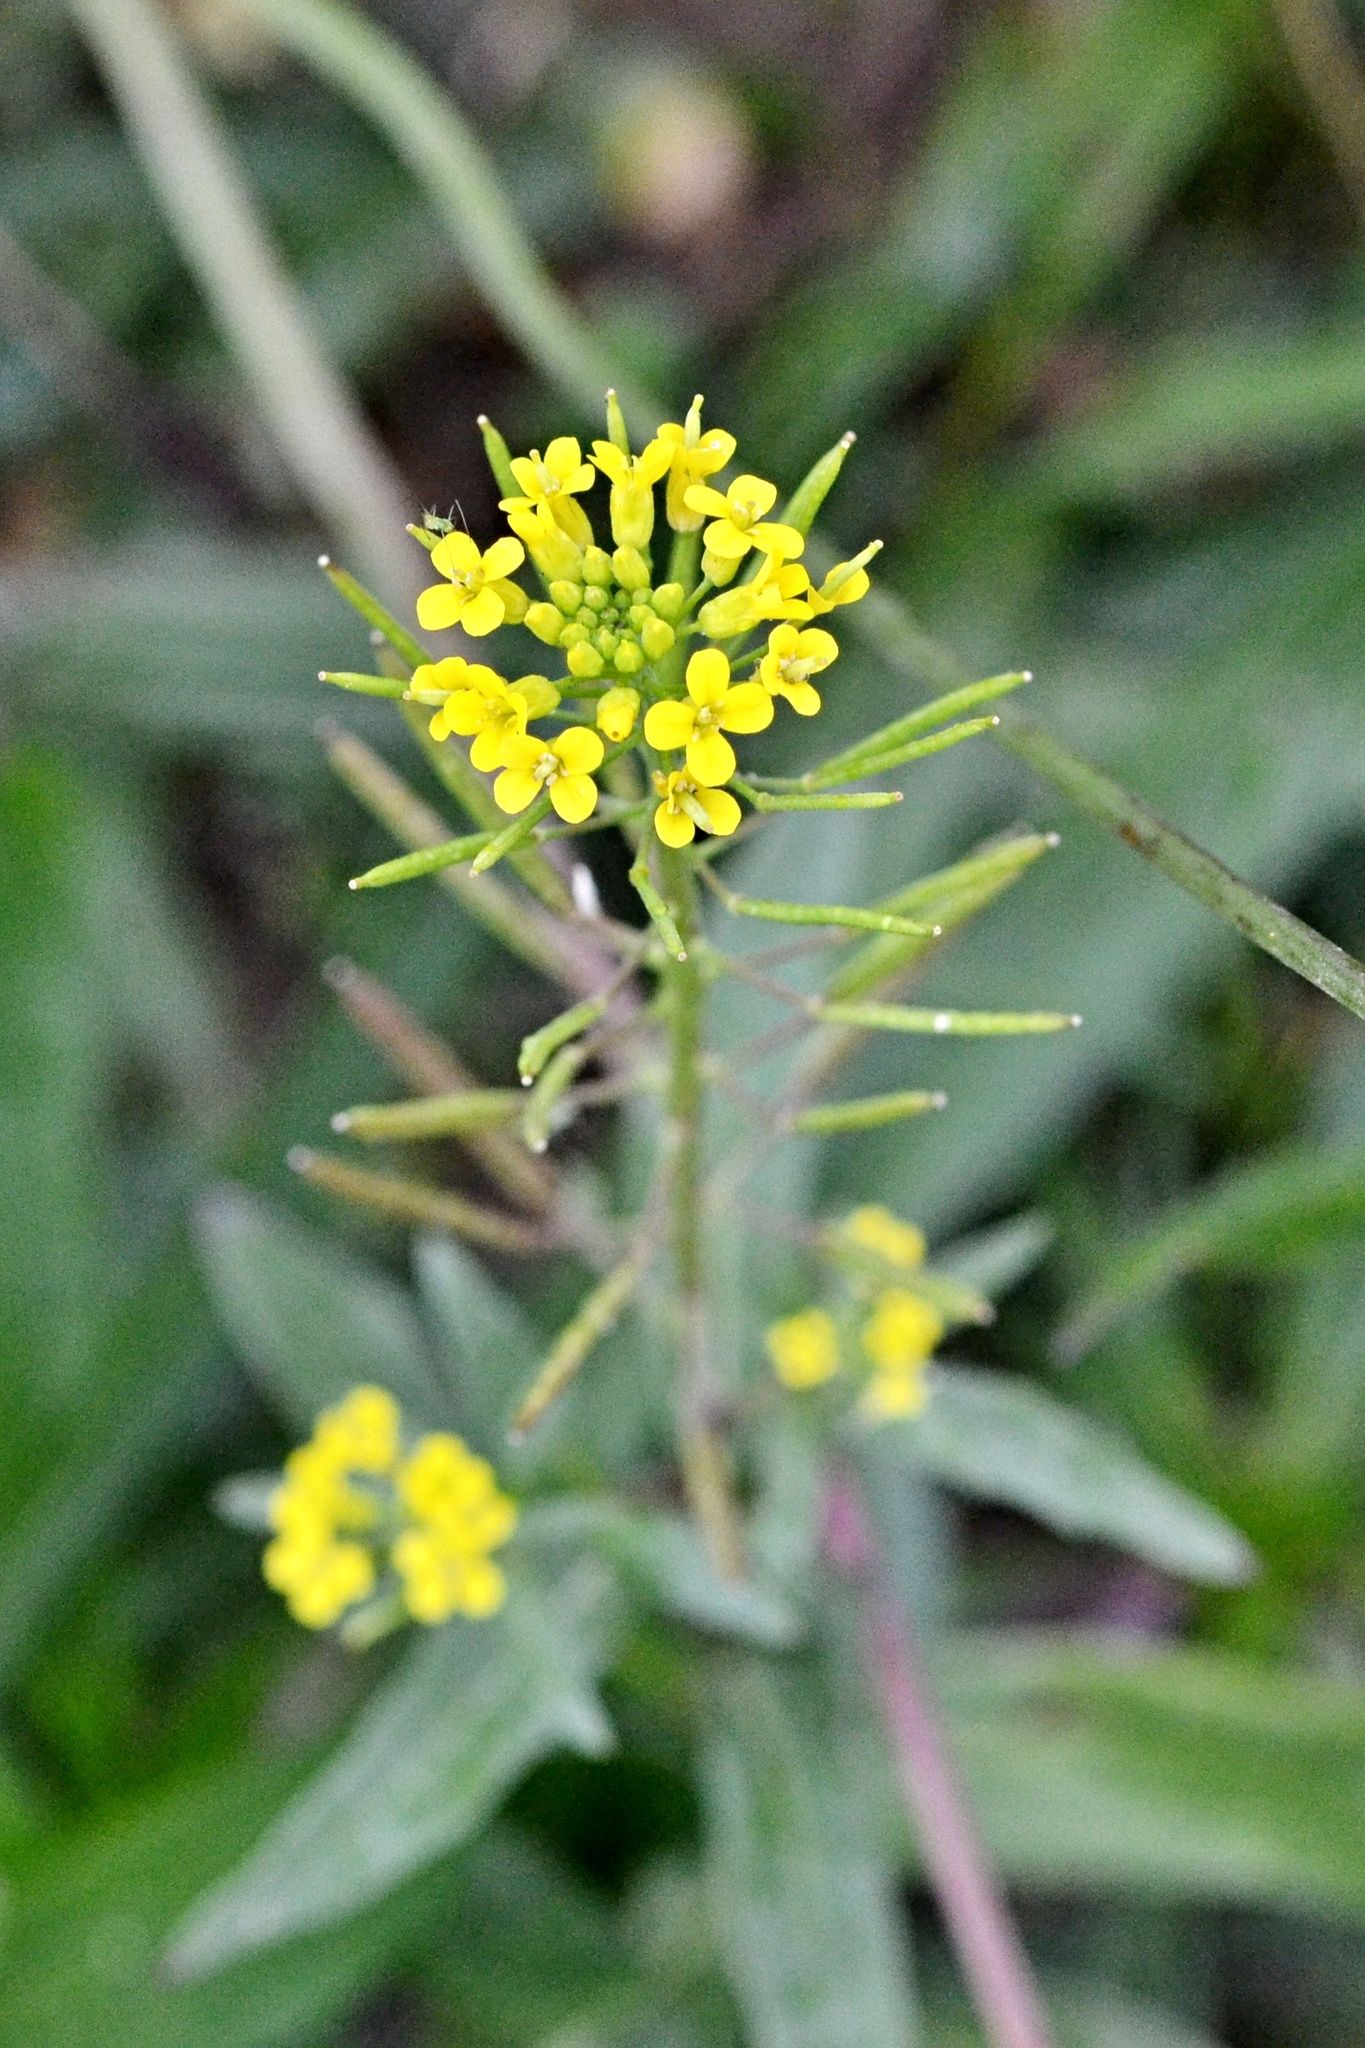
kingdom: Plantae
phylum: Tracheophyta
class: Magnoliopsida
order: Brassicales
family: Brassicaceae
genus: Erysimum
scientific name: Erysimum cheiranthoides
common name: Treacle mustard
